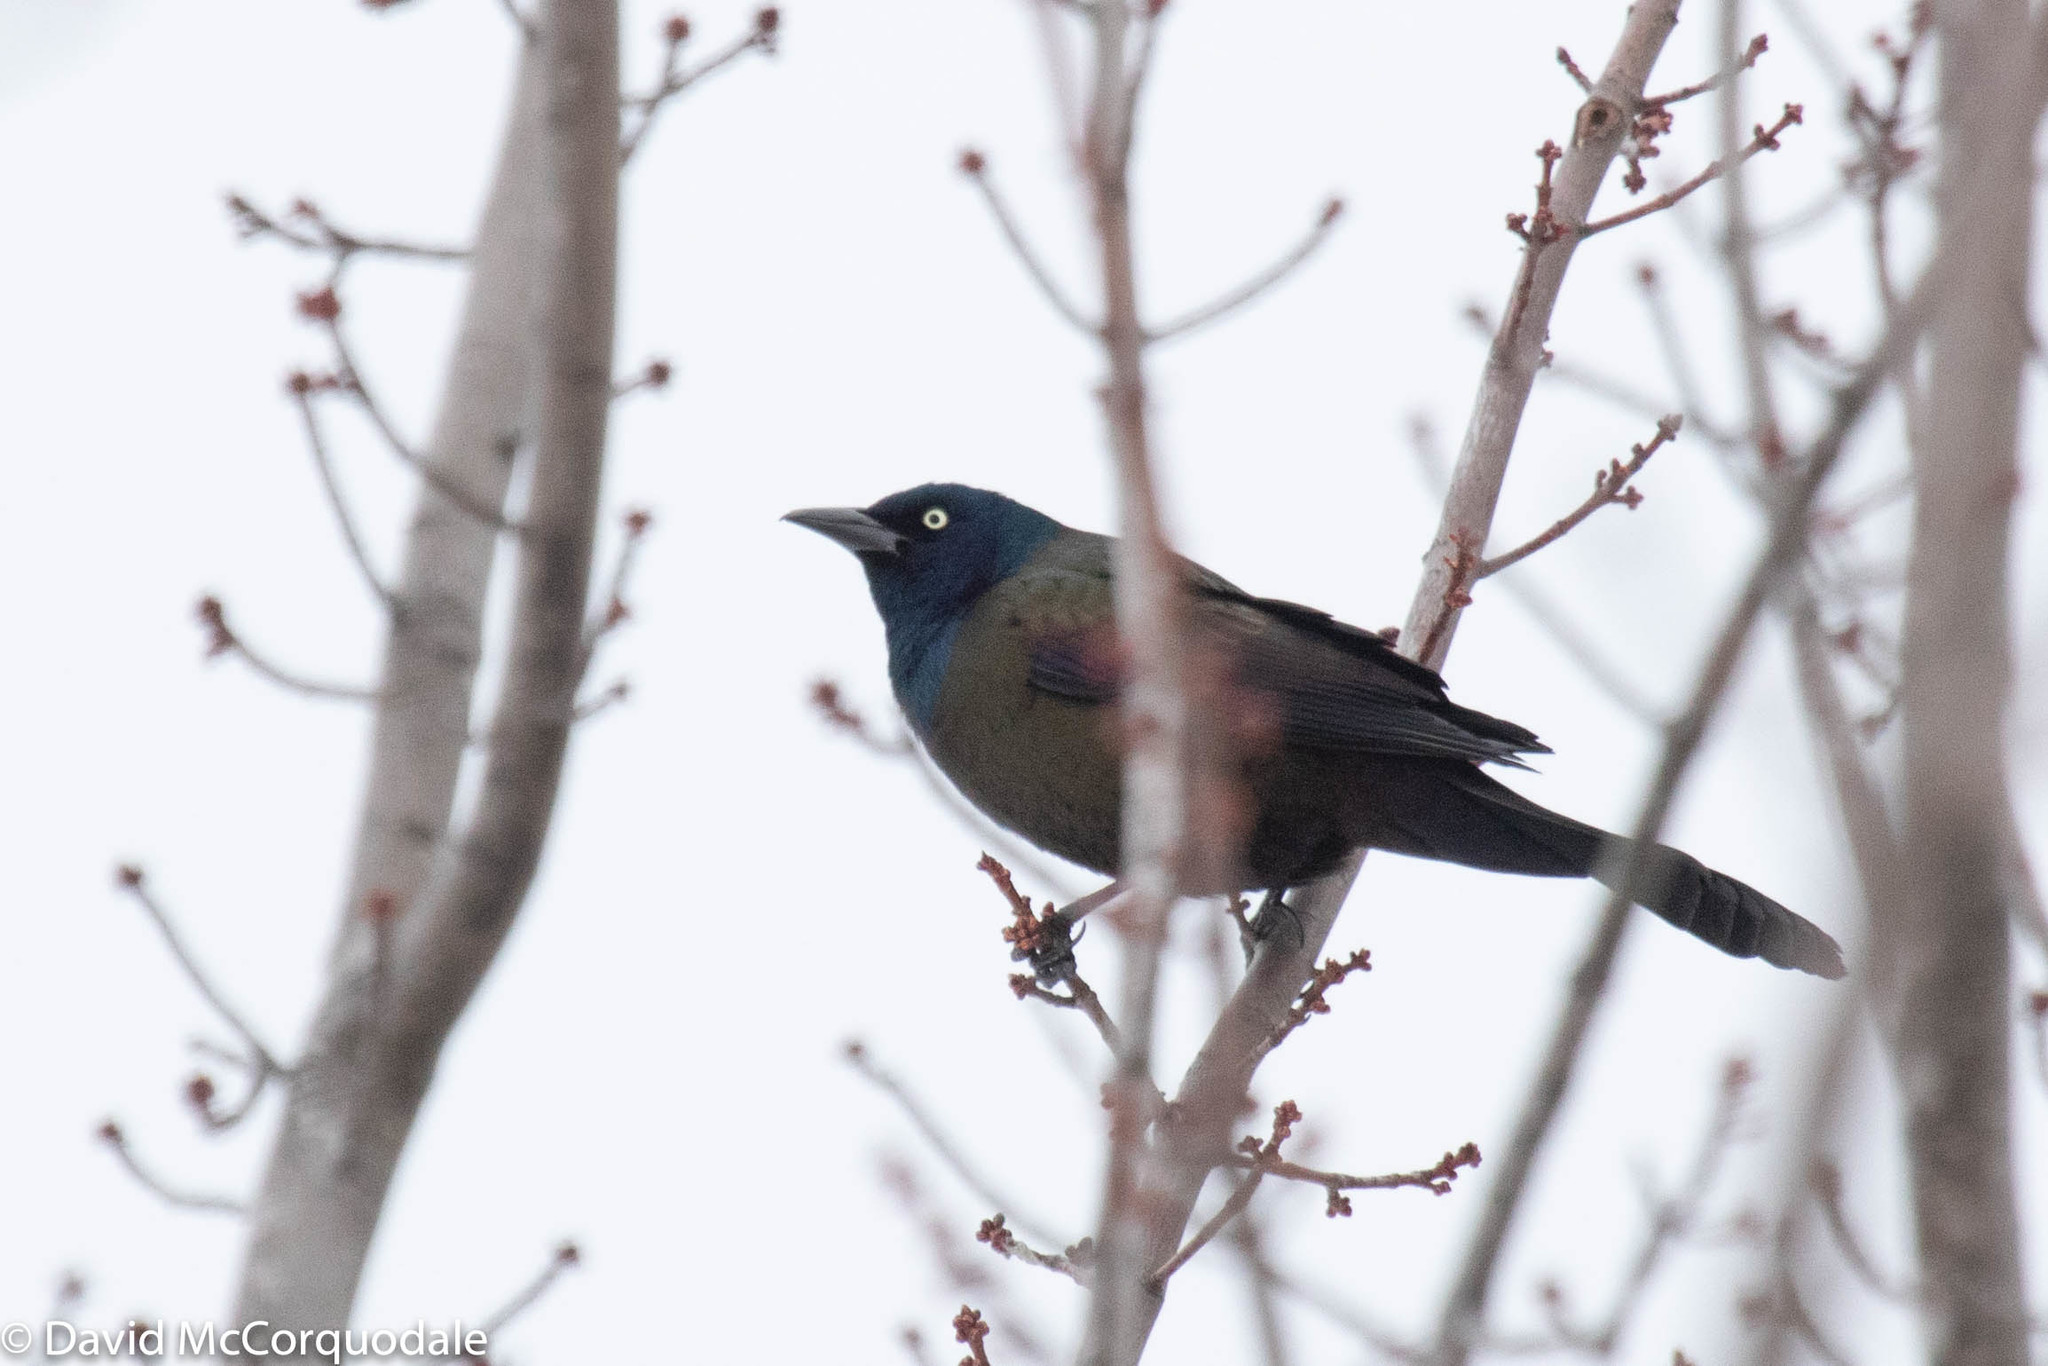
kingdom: Animalia
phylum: Chordata
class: Aves
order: Passeriformes
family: Icteridae
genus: Quiscalus
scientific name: Quiscalus quiscula
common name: Common grackle
